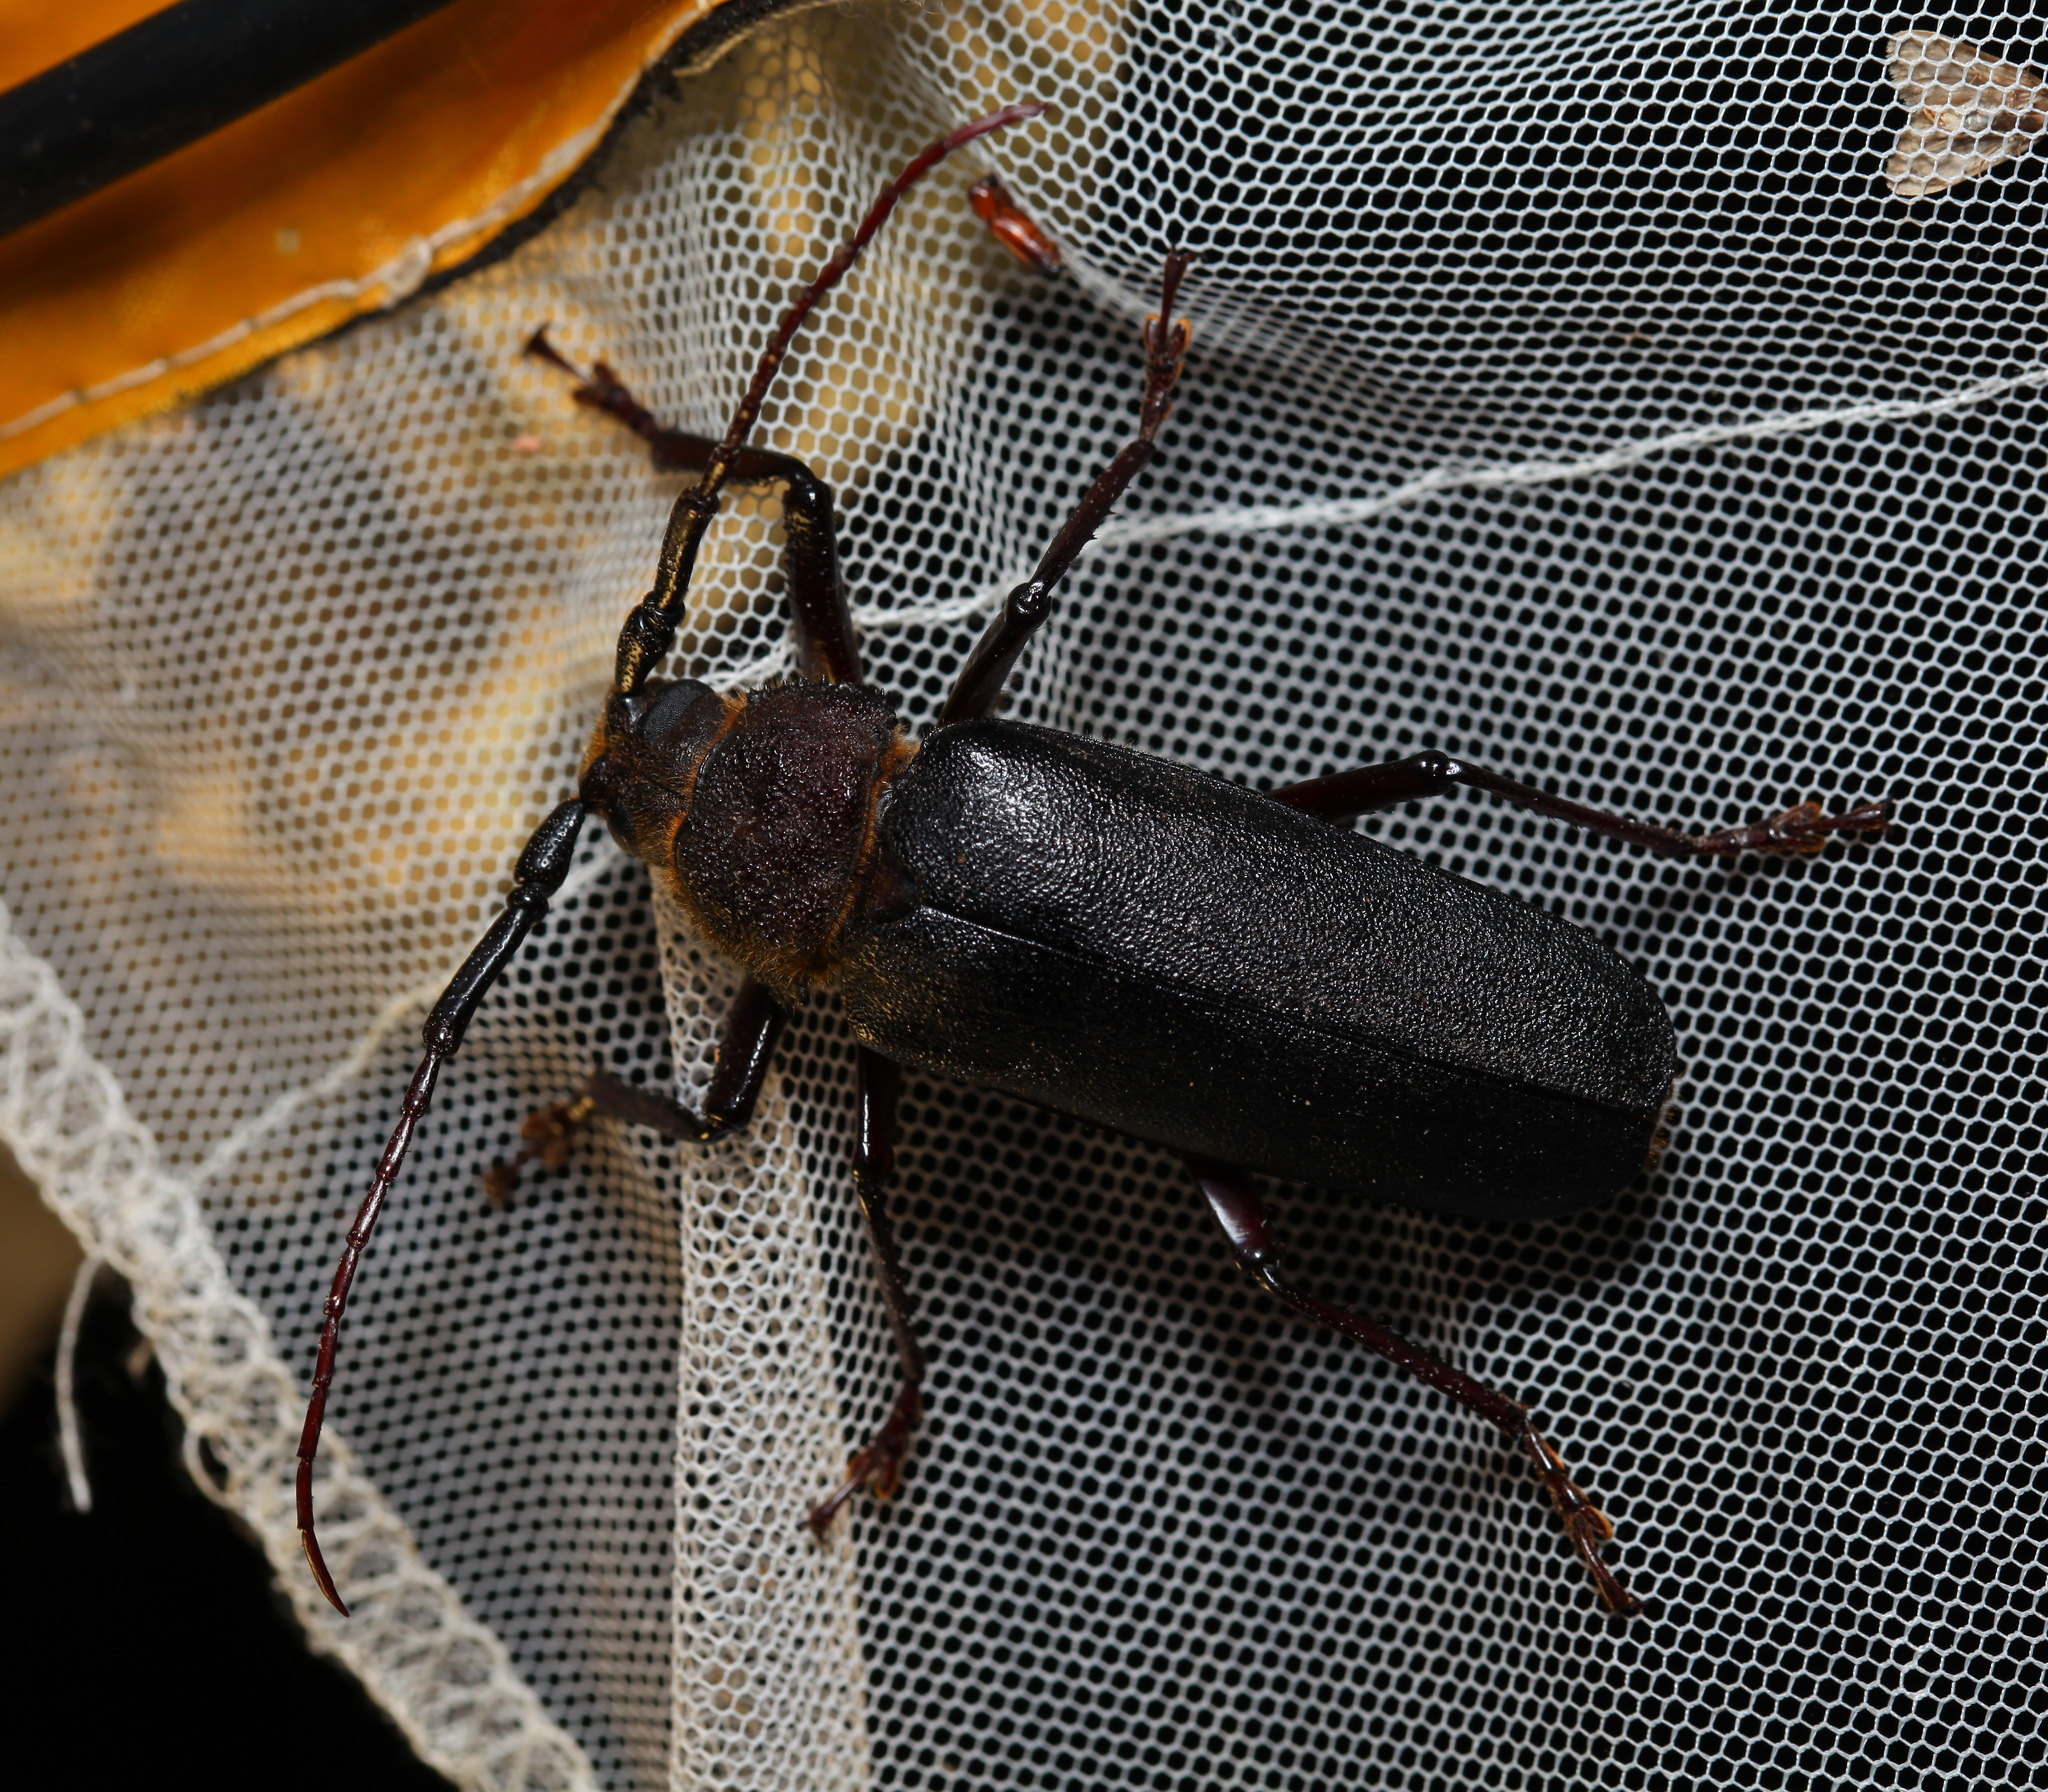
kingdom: Animalia
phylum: Arthropoda
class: Insecta
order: Coleoptera
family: Cerambycidae
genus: Paramacrotoma
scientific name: Paramacrotoma dimidiaticornis
